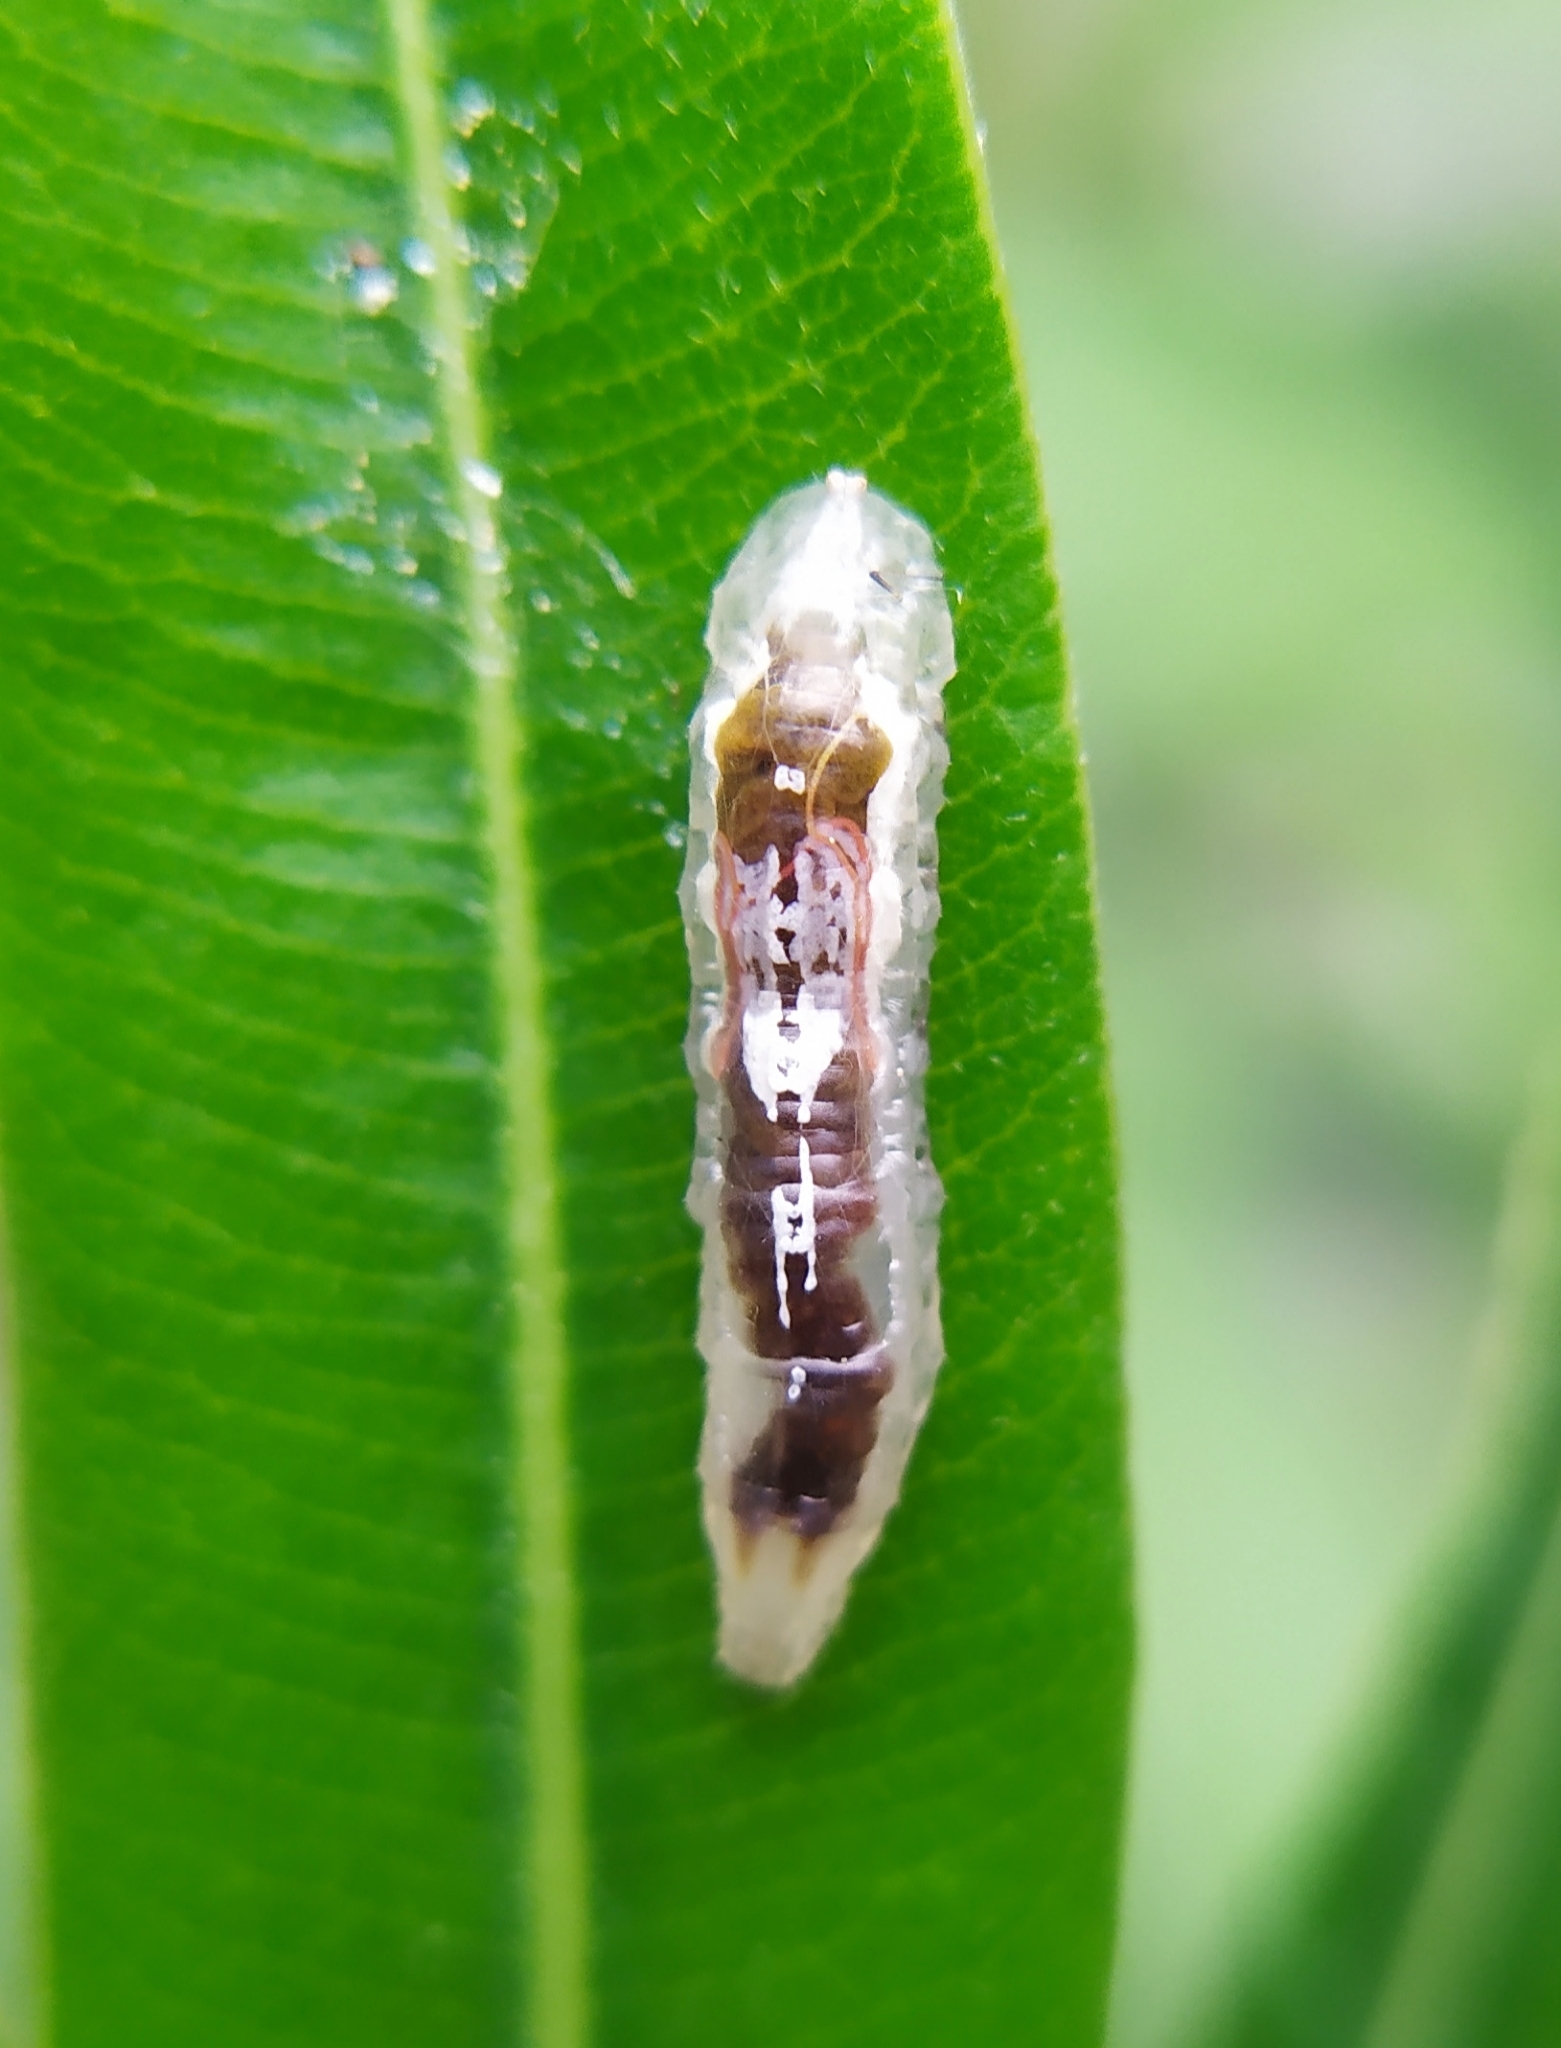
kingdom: Animalia
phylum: Arthropoda
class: Insecta
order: Diptera
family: Syrphidae
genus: Episyrphus
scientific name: Episyrphus balteatus
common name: Marmalade hoverfly
